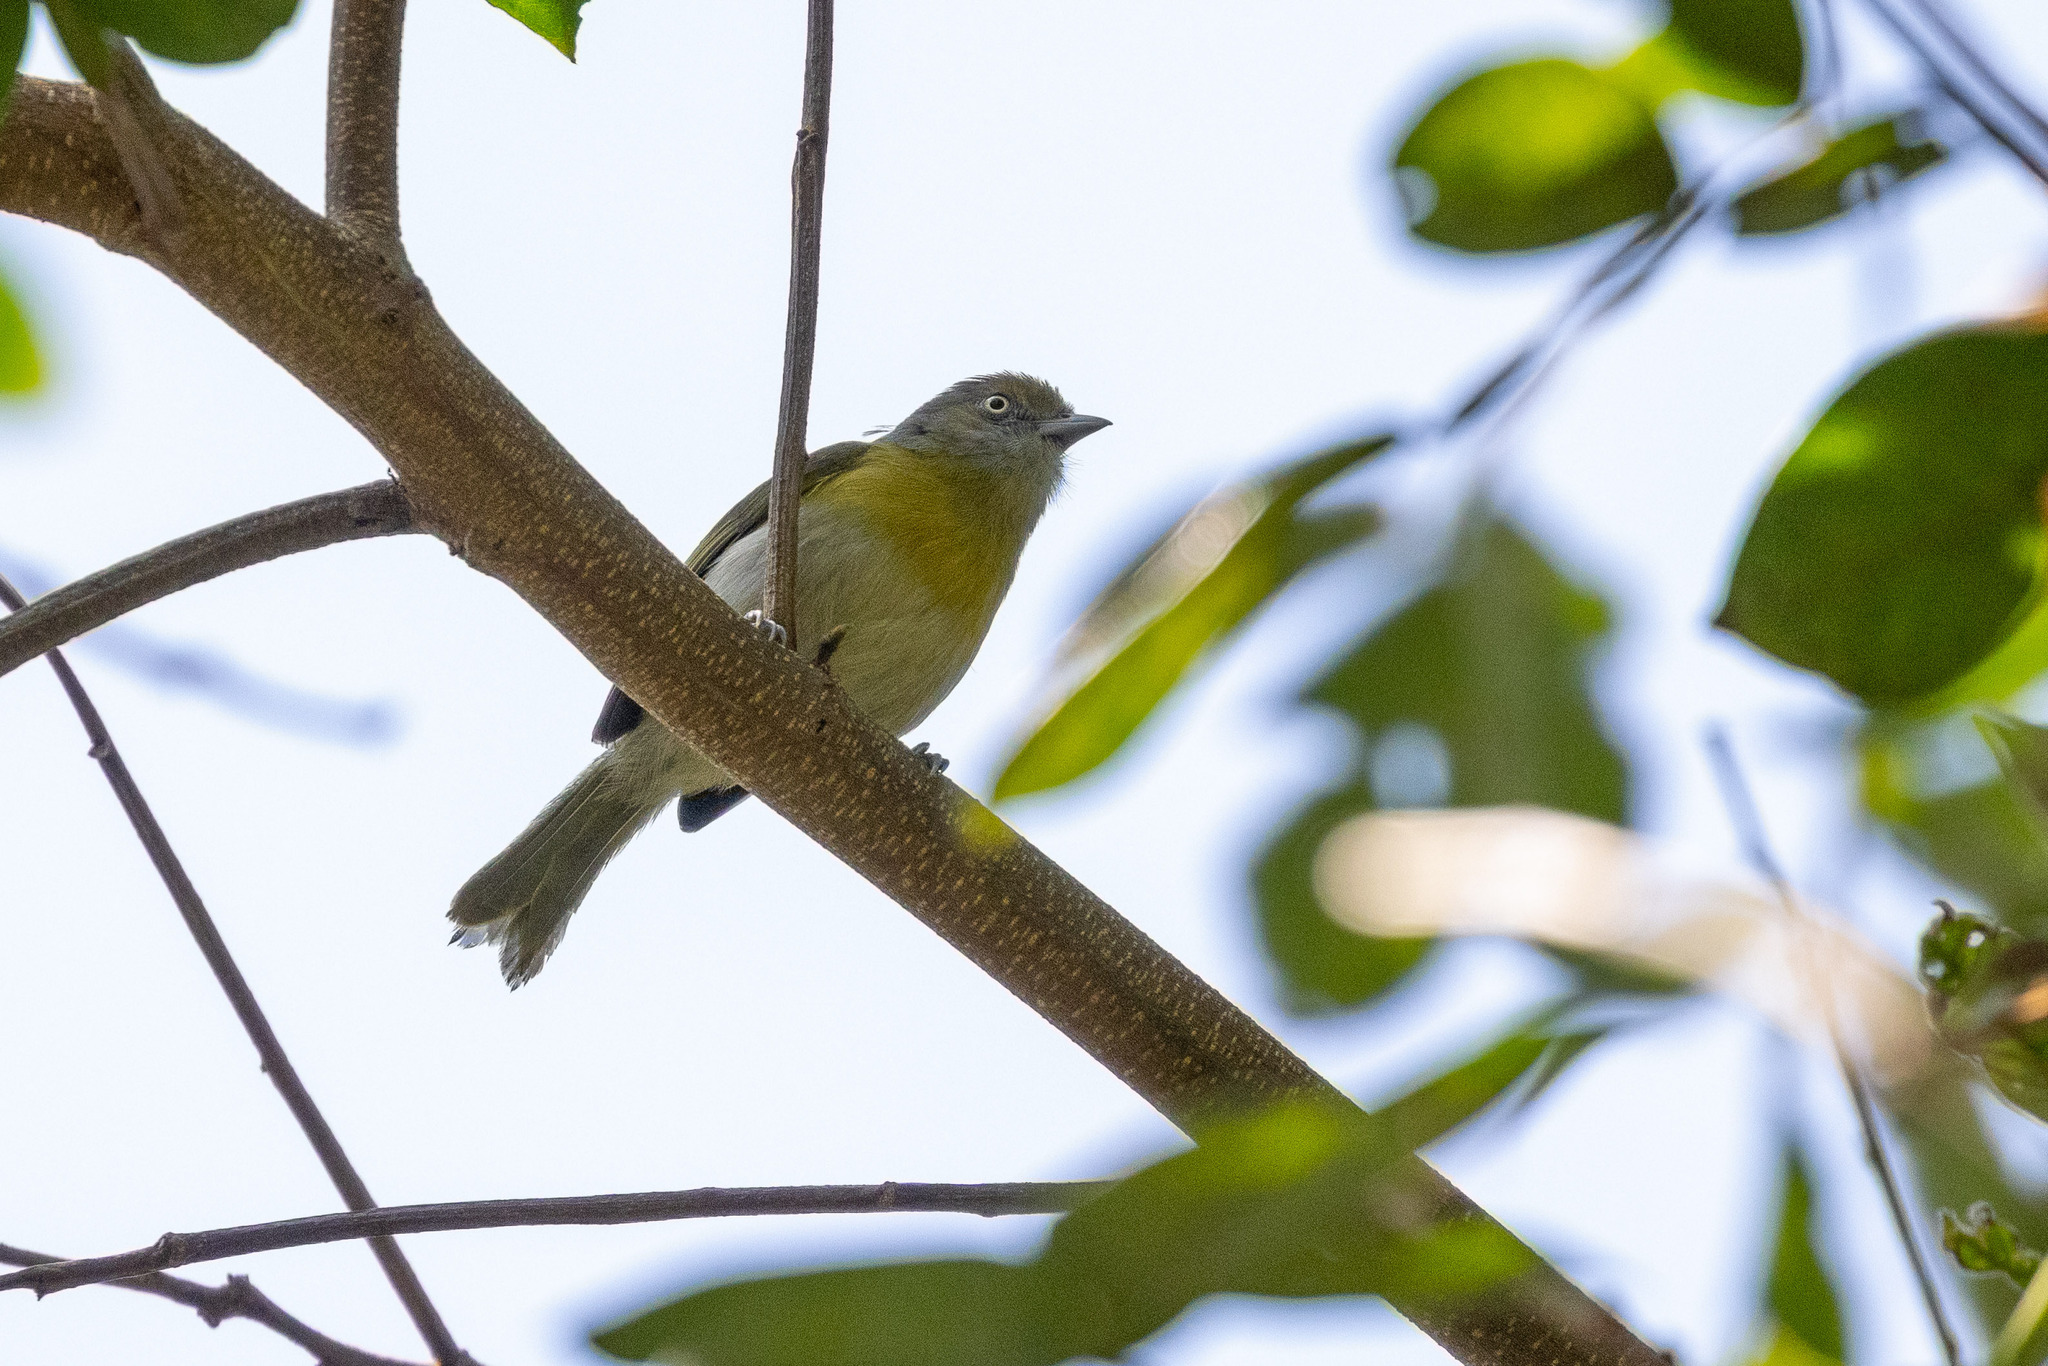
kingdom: Animalia
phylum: Chordata
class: Aves
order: Passeriformes
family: Vireonidae
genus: Hylophilus
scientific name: Hylophilus thoracicus
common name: Lemon-chested greenlet
